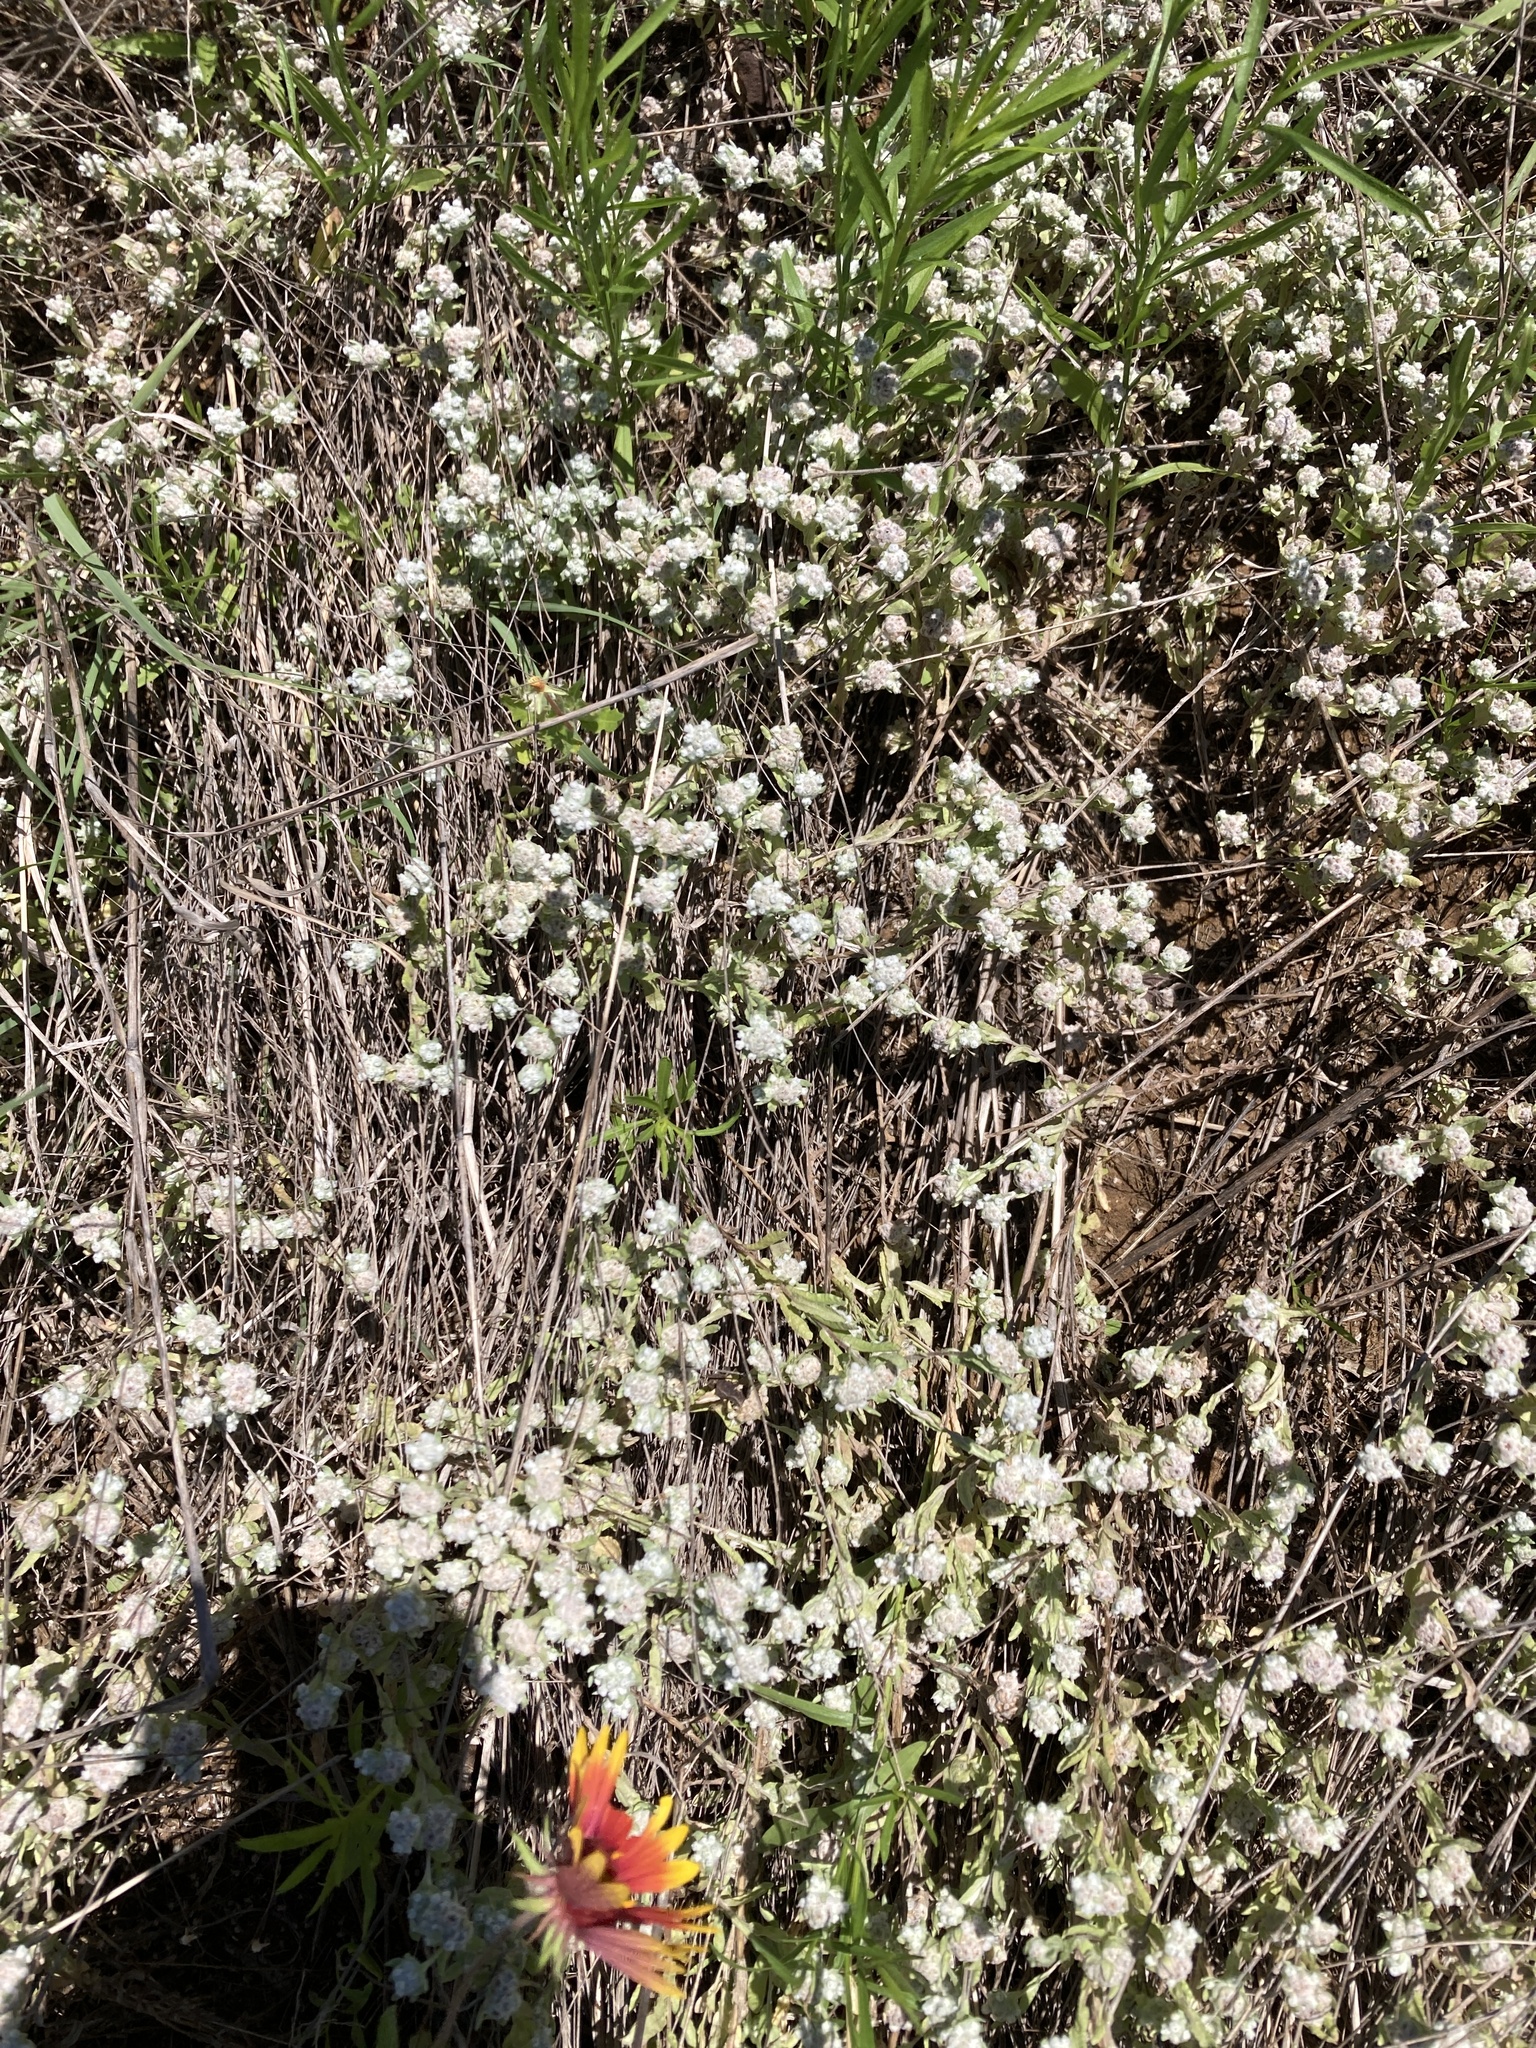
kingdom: Plantae
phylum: Tracheophyta
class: Magnoliopsida
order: Asterales
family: Asteraceae
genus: Diaperia
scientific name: Diaperia verna
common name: Many-stem rabbit-tobacco
